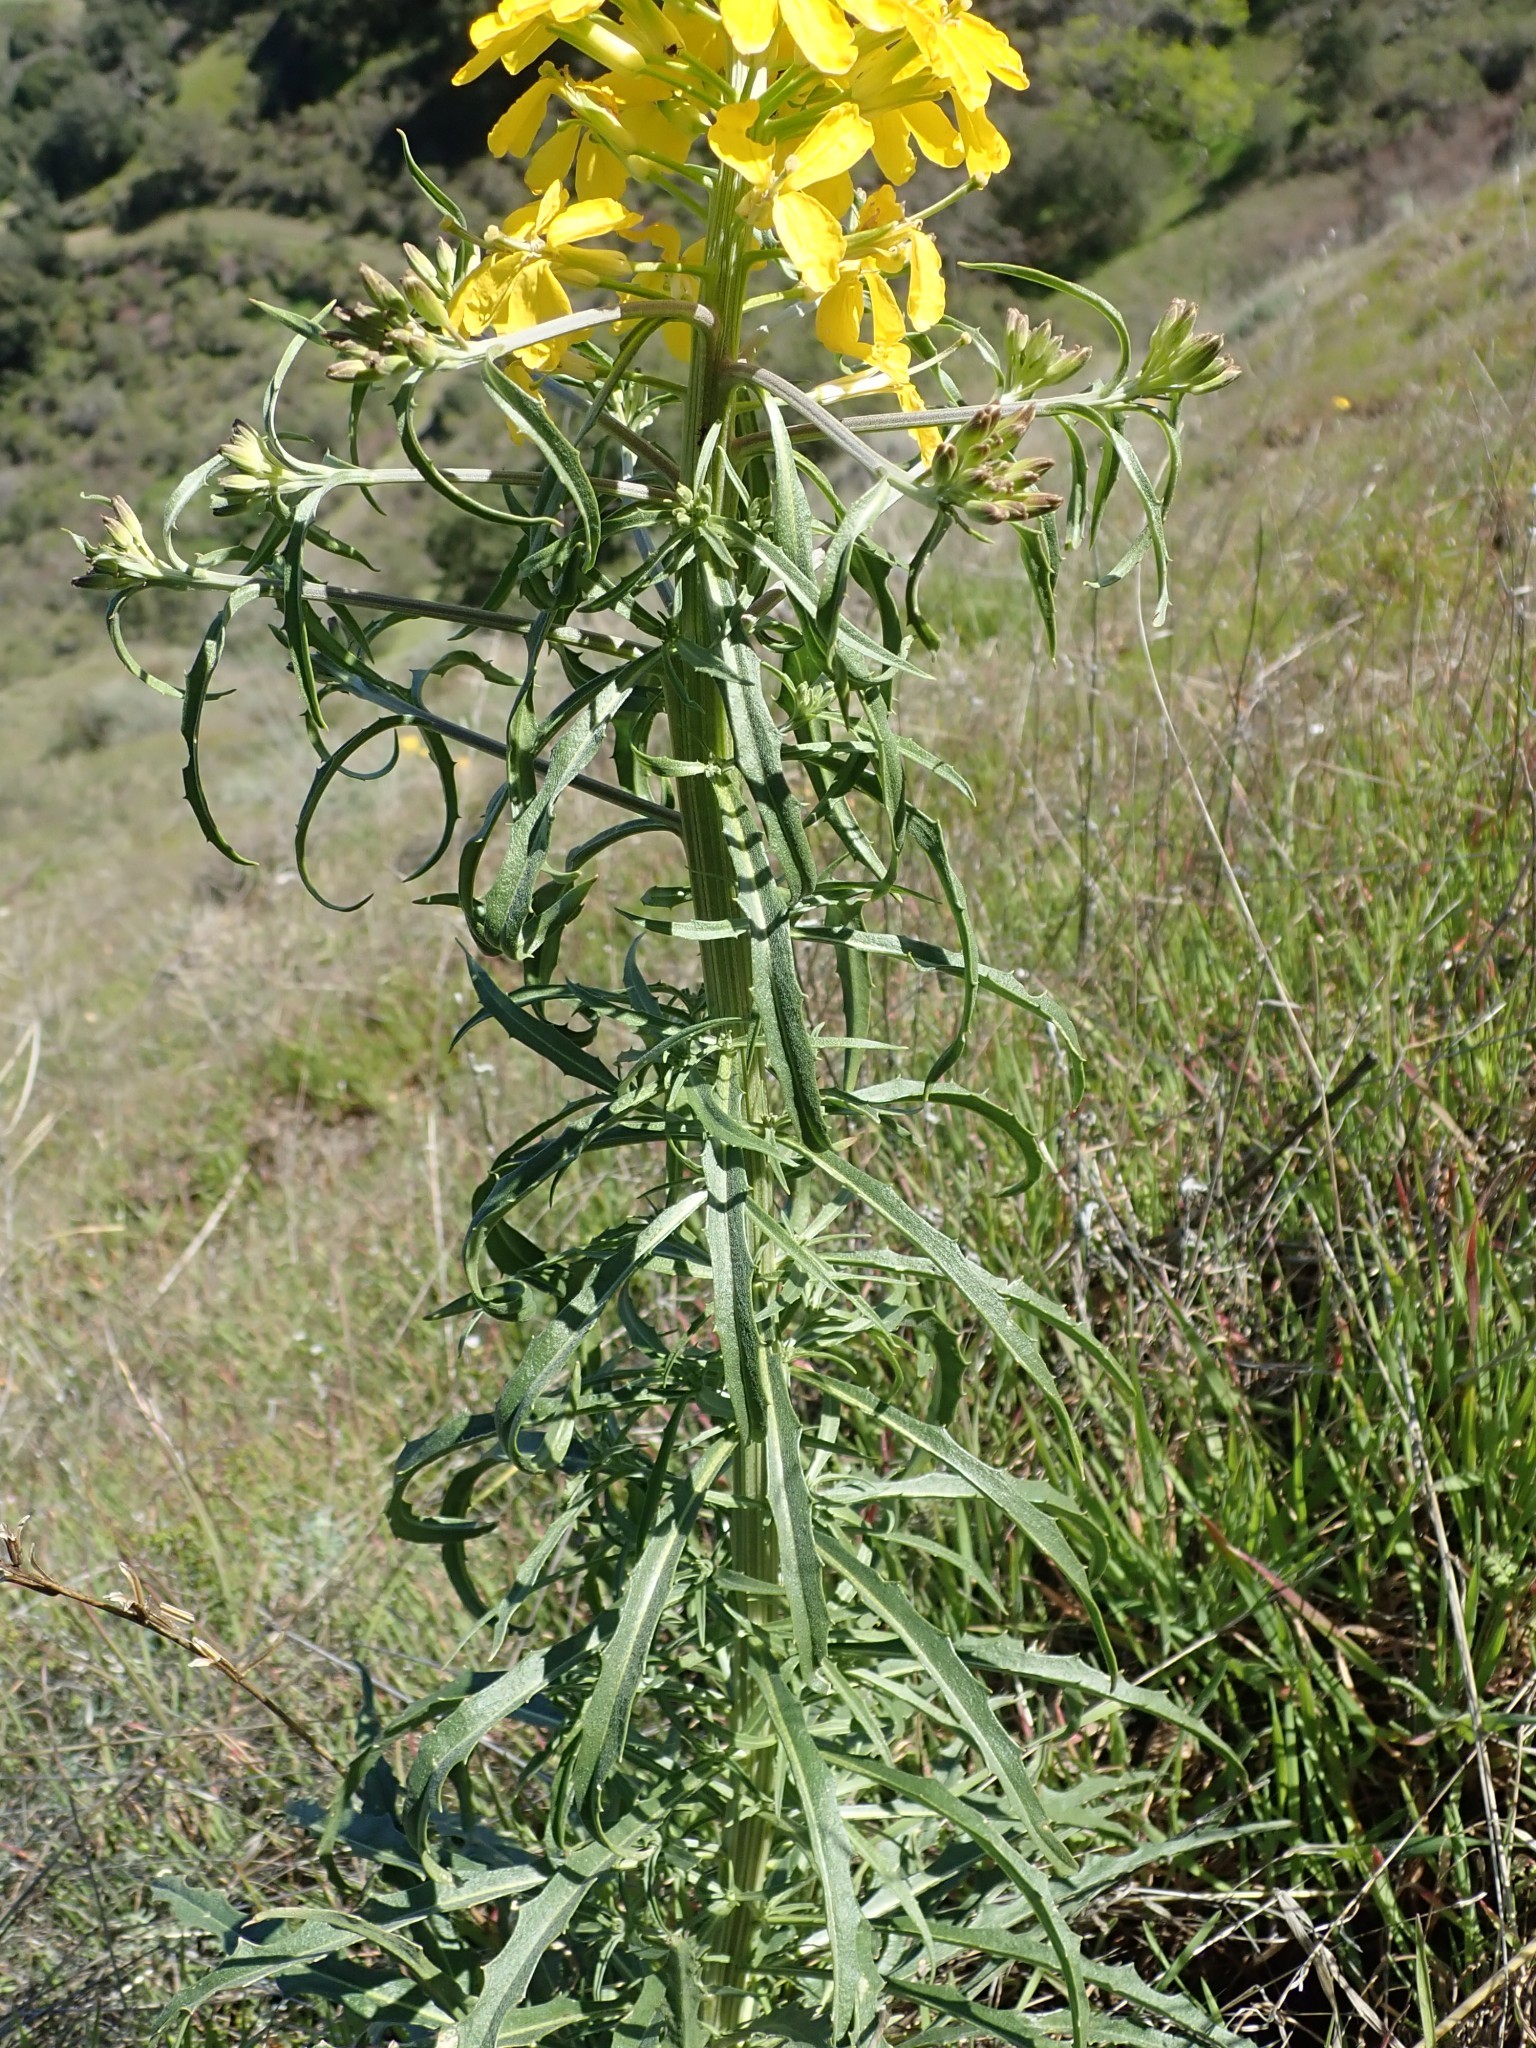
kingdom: Plantae
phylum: Tracheophyta
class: Magnoliopsida
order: Brassicales
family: Brassicaceae
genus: Erysimum
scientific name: Erysimum capitatum
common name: Western wallflower
